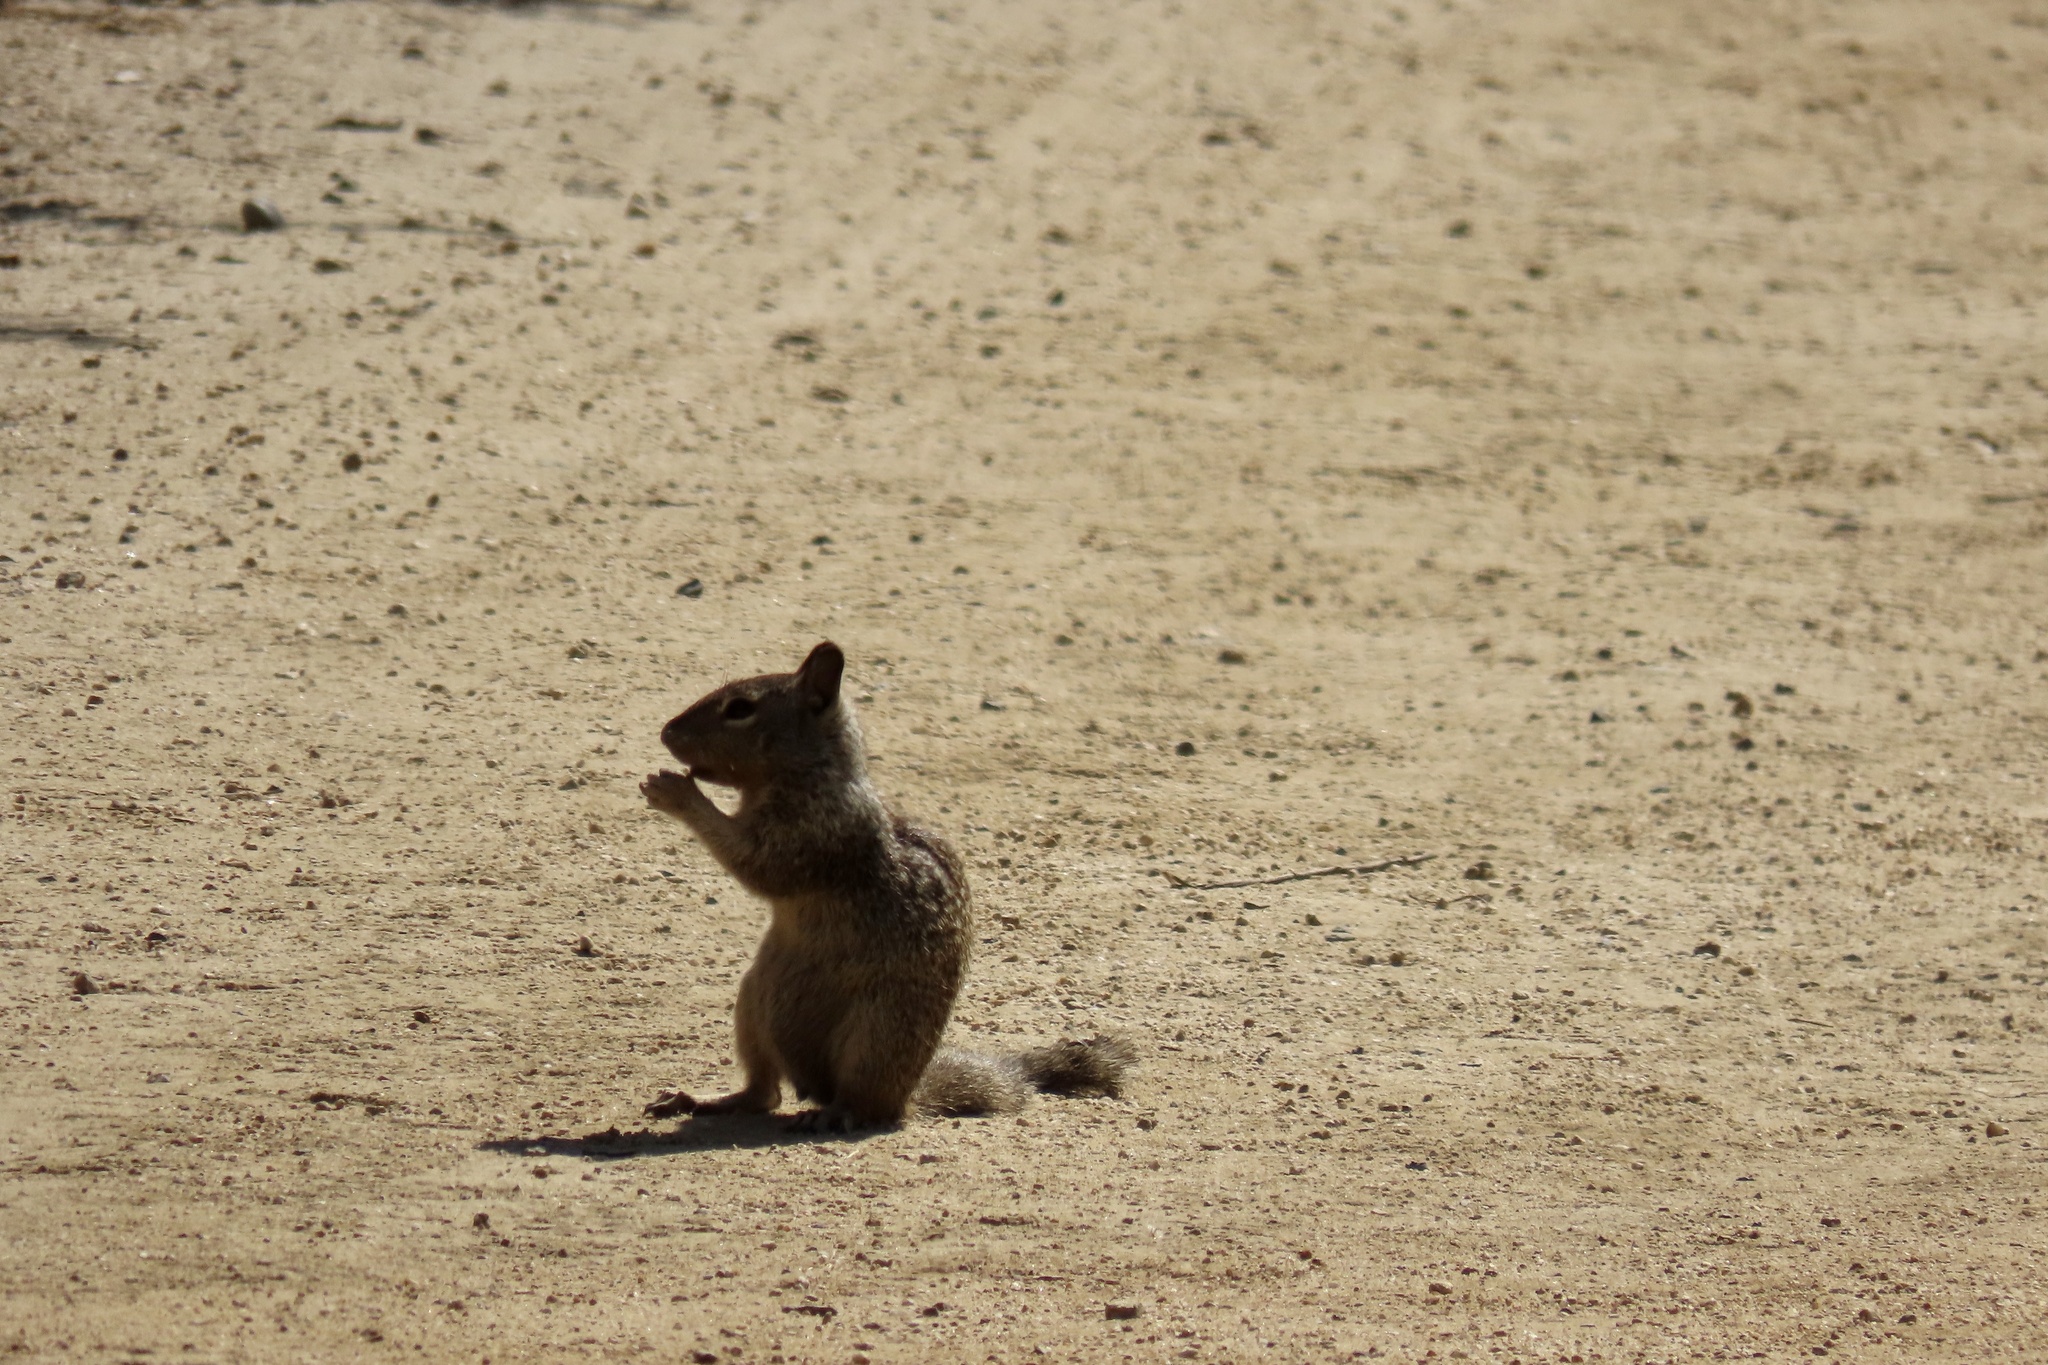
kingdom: Animalia
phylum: Chordata
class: Mammalia
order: Rodentia
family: Sciuridae
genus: Otospermophilus
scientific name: Otospermophilus beecheyi
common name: California ground squirrel
